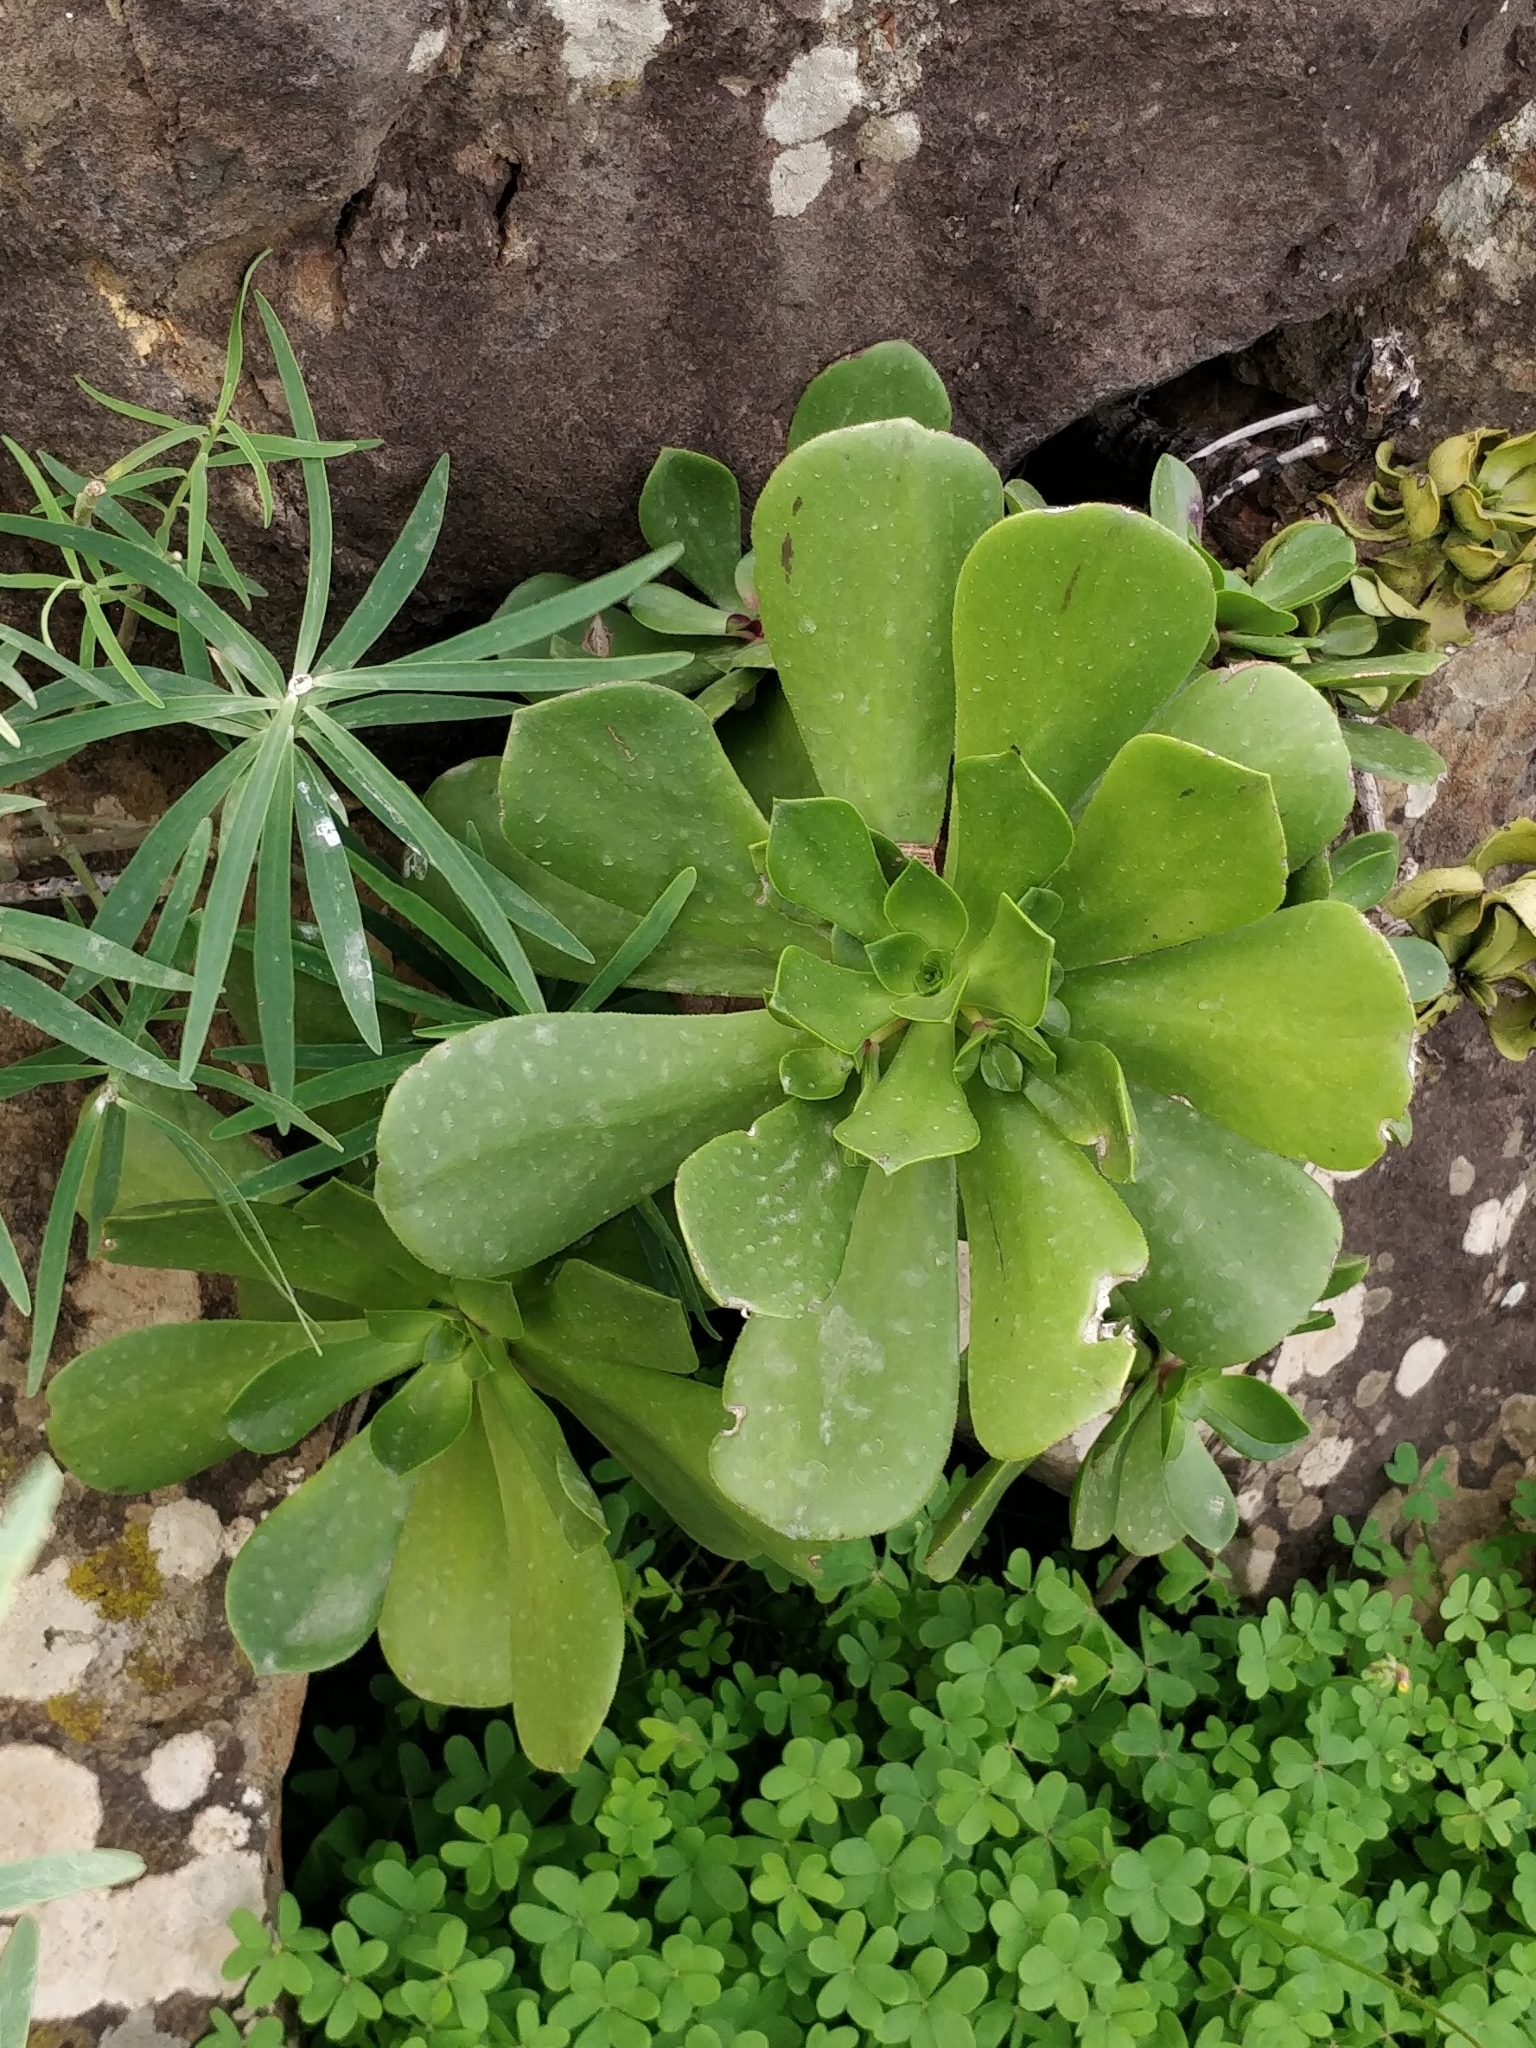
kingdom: Plantae
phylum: Tracheophyta
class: Magnoliopsida
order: Saxifragales
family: Crassulaceae
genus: Aeonium
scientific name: Aeonium glutinosum
